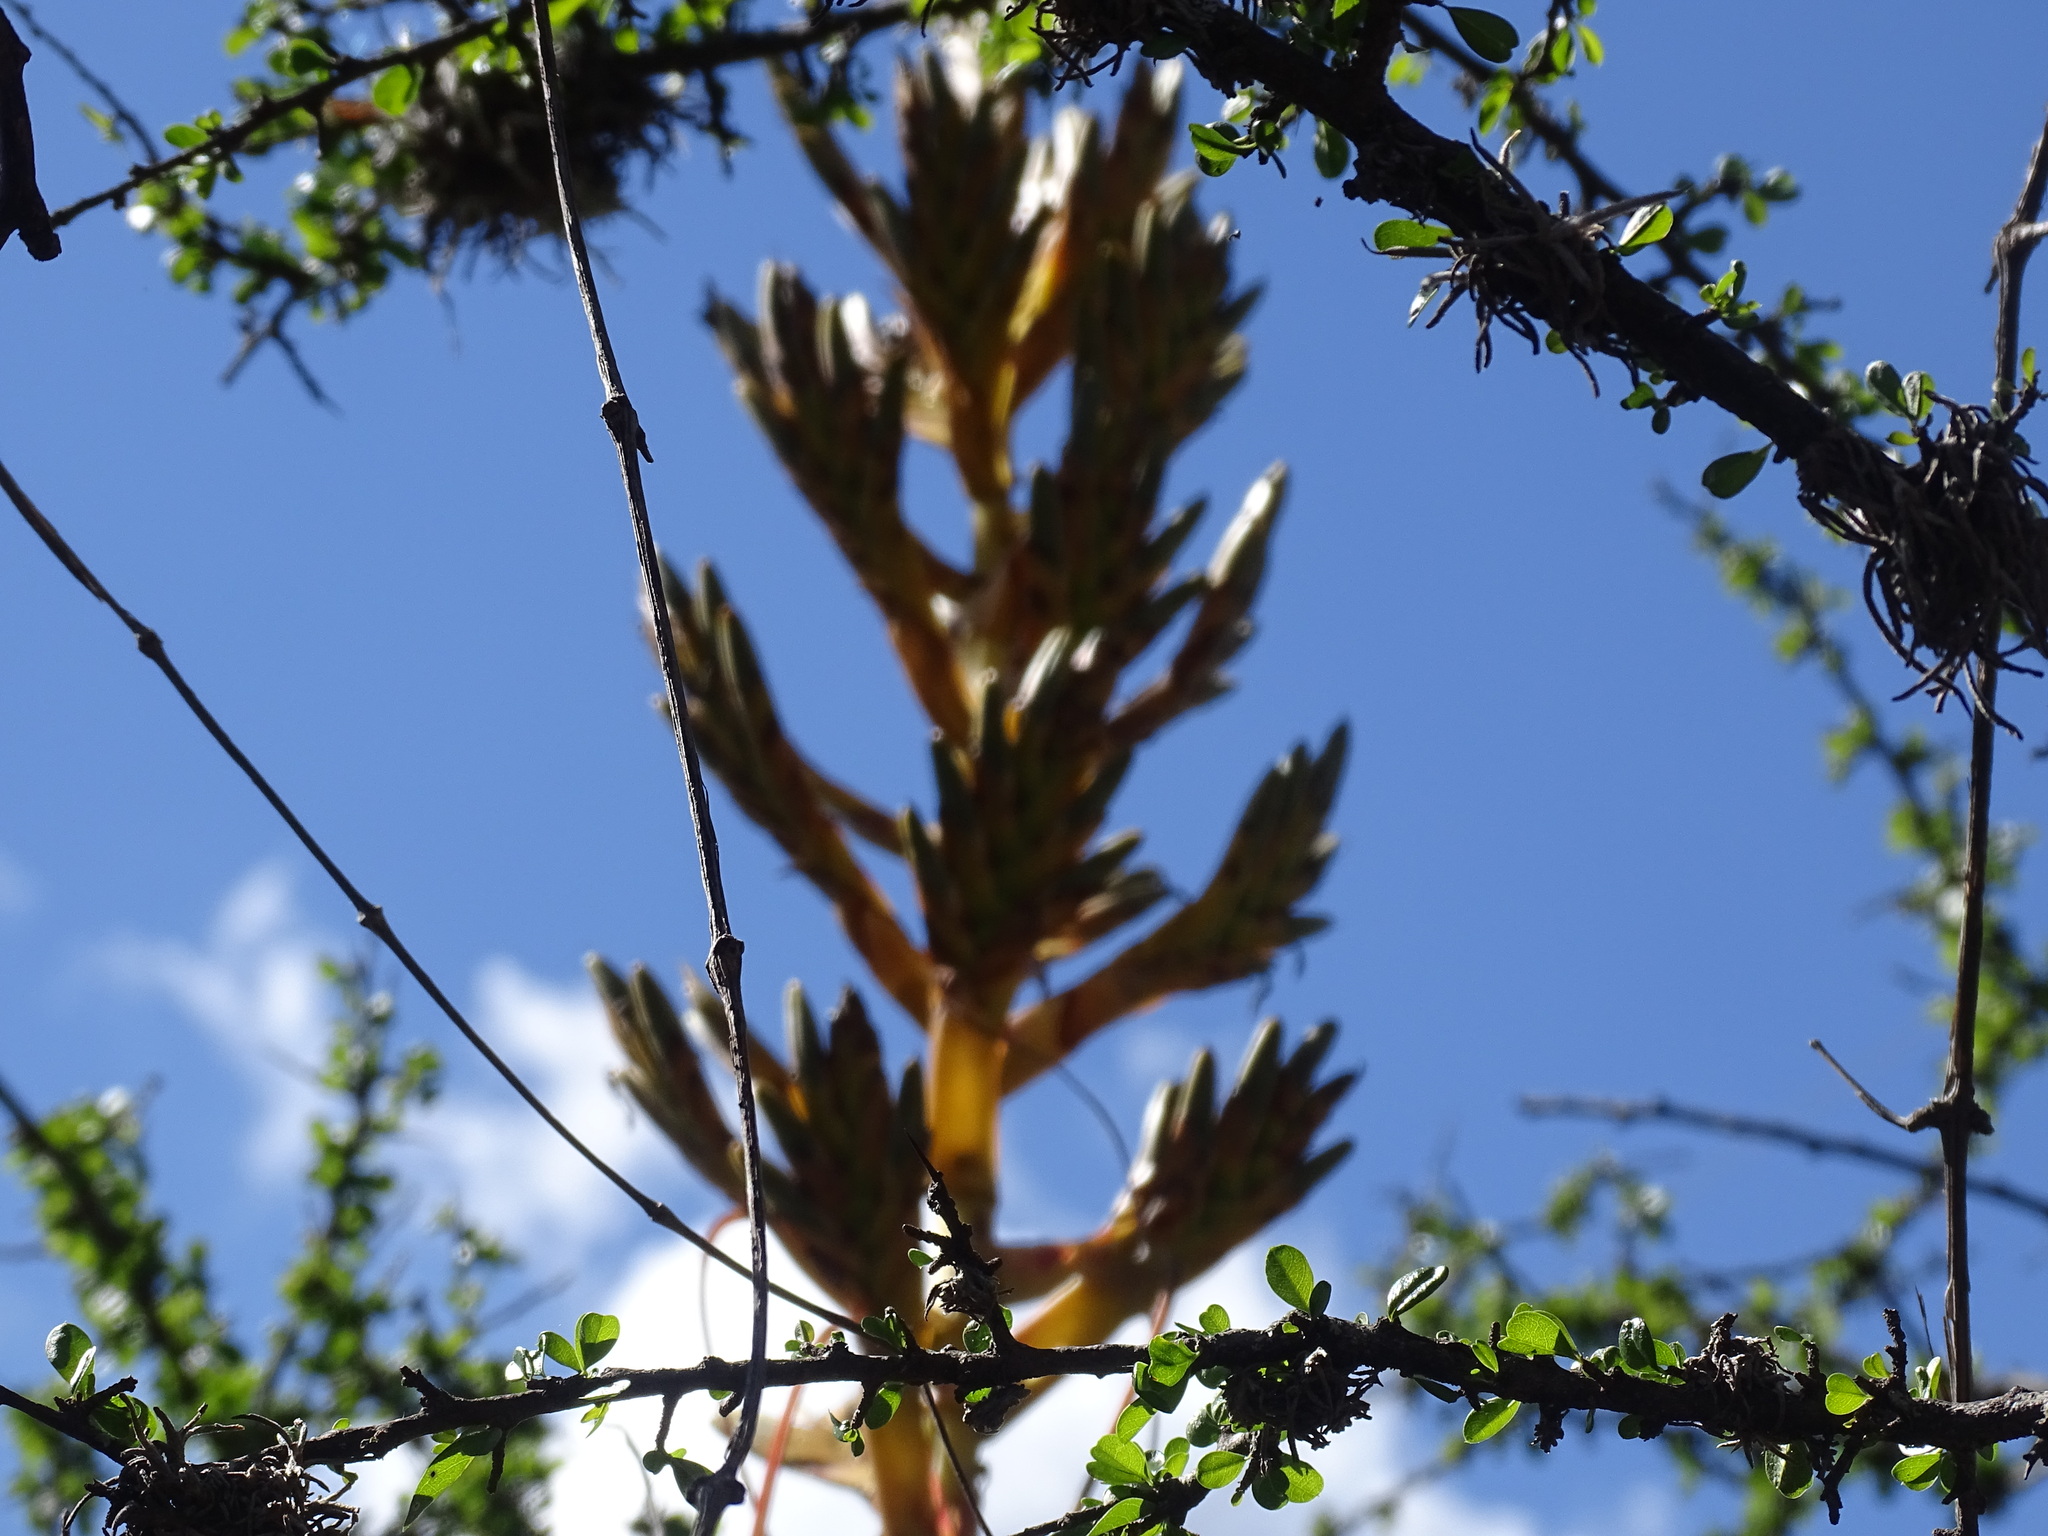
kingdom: Plantae
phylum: Tracheophyta
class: Liliopsida
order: Poales
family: Bromeliaceae
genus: Tillandsia
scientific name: Tillandsia dugesii
